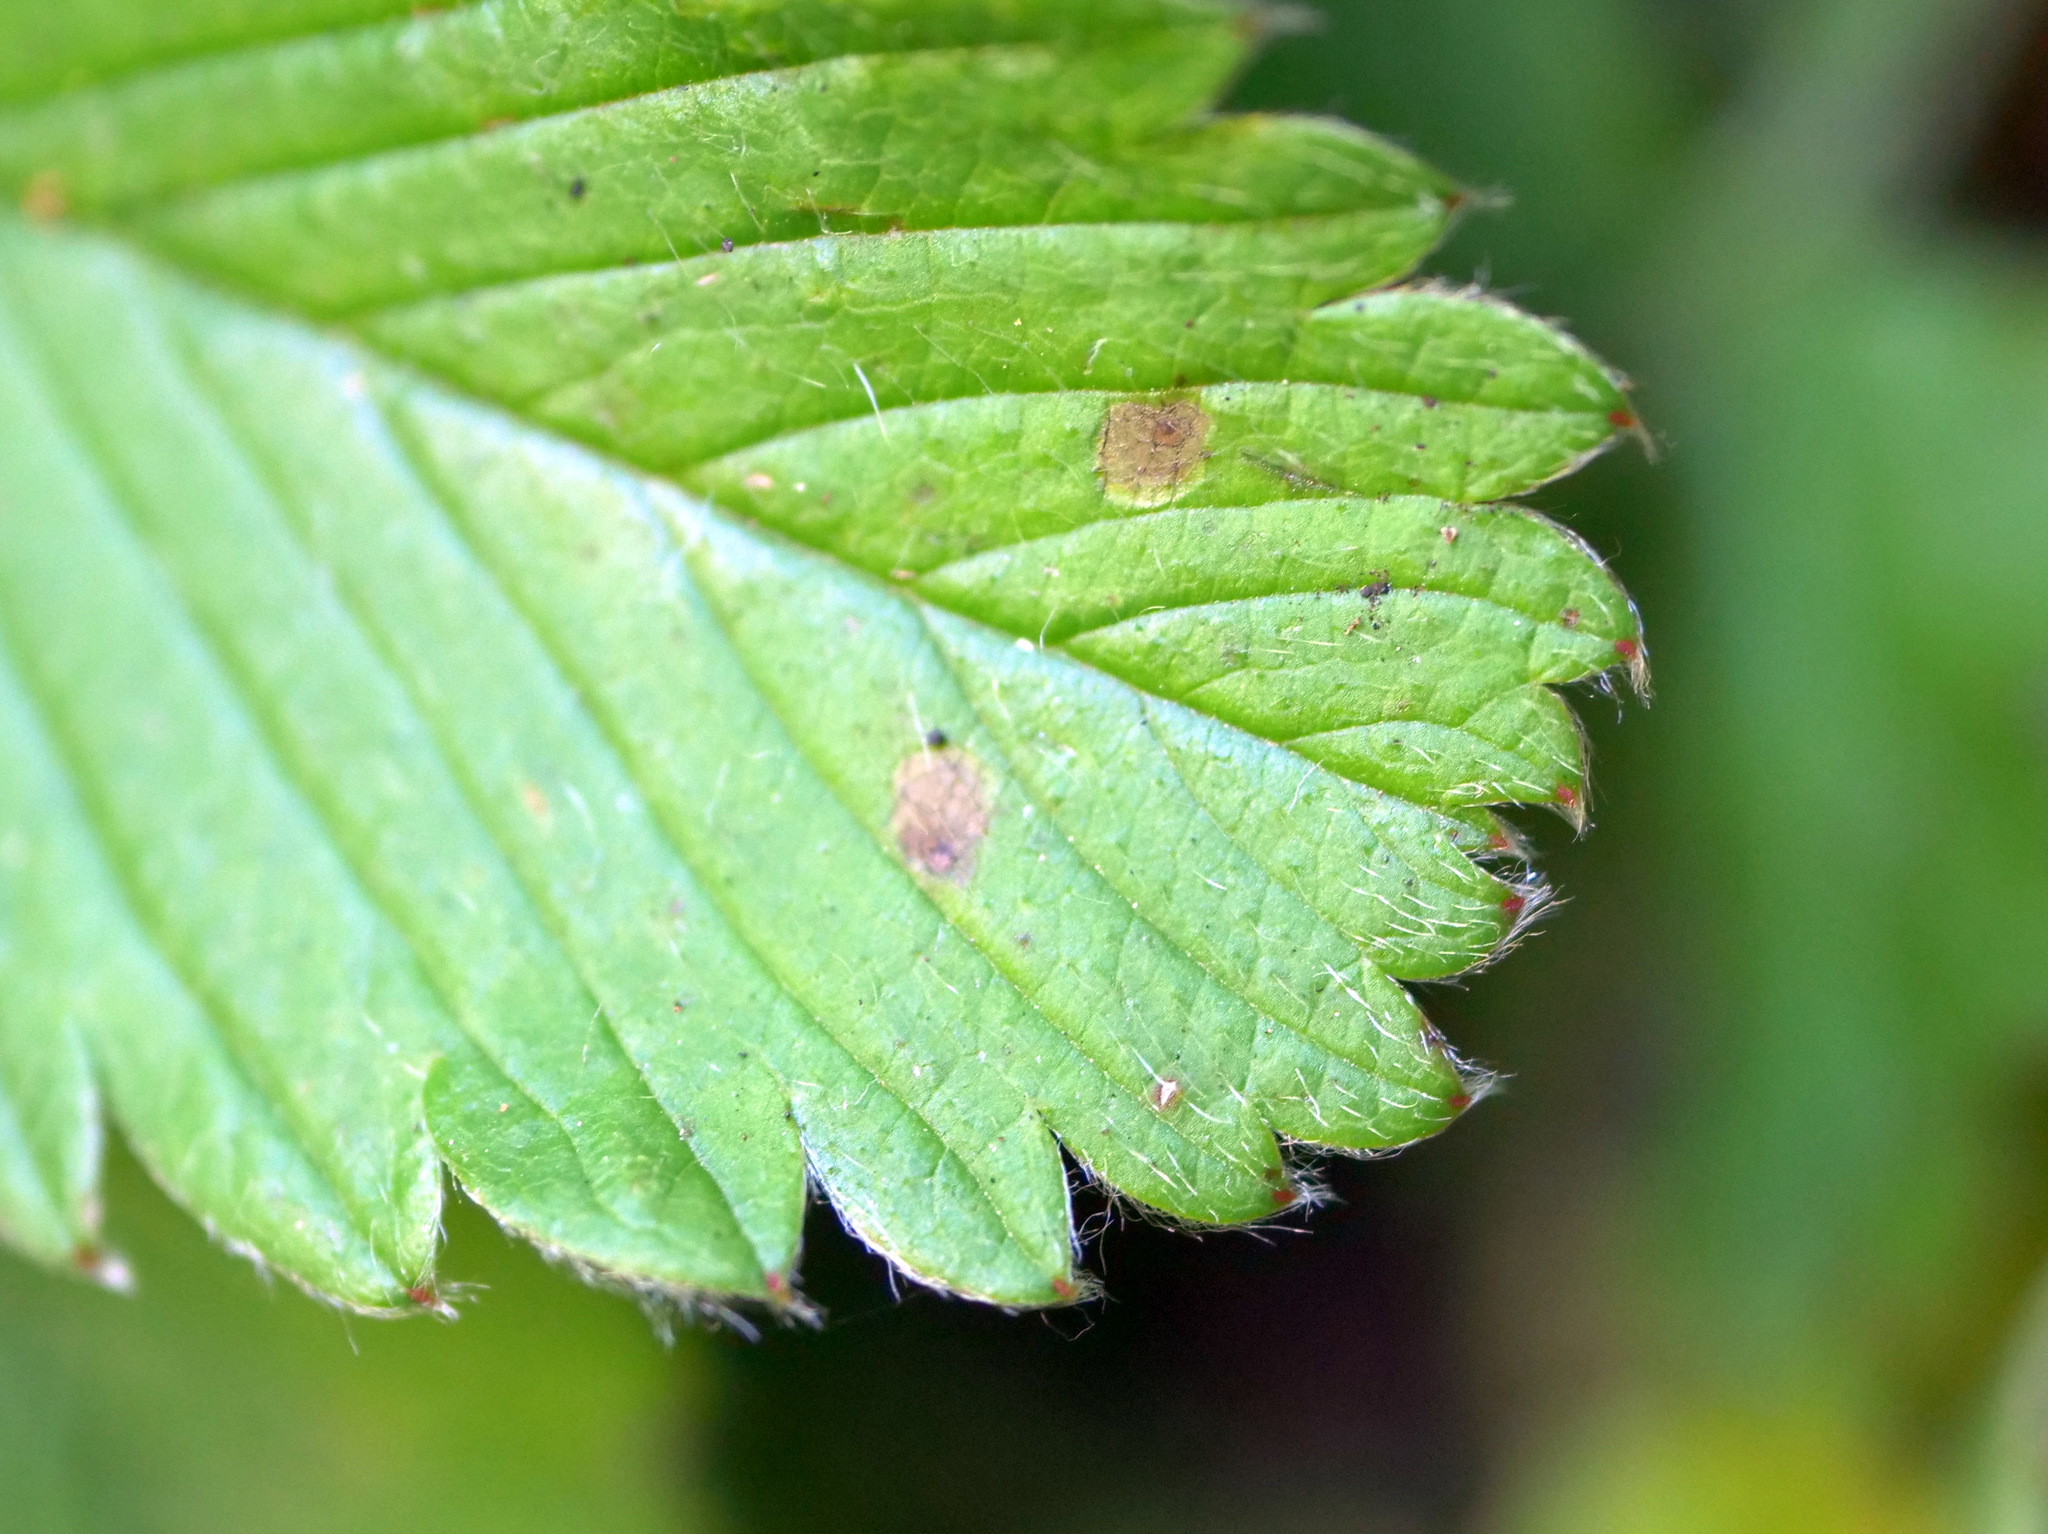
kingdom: Plantae
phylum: Tracheophyta
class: Magnoliopsida
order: Rosales
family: Rosaceae
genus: Fragaria
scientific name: Fragaria viridis
